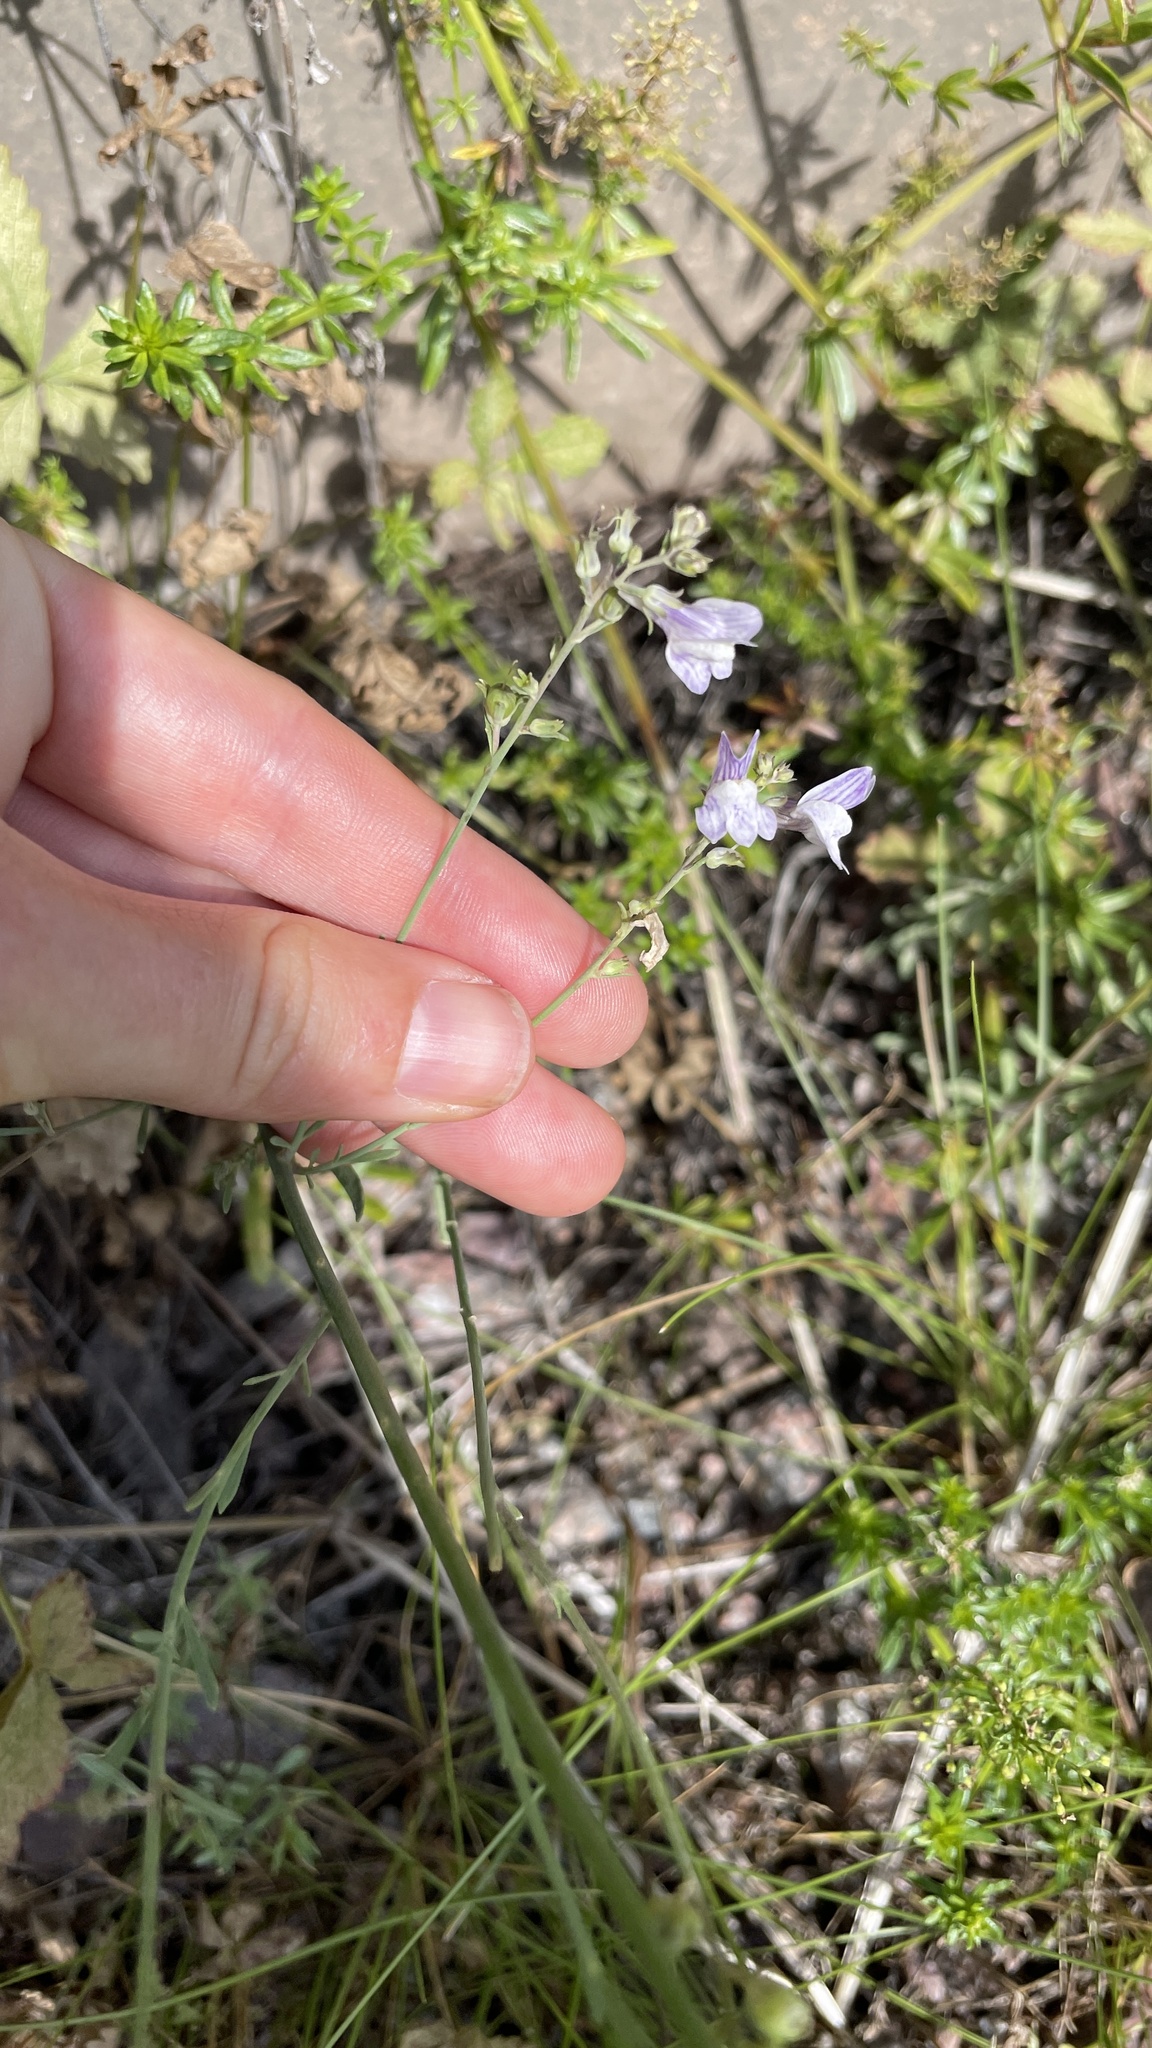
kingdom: Plantae
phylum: Tracheophyta
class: Magnoliopsida
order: Lamiales
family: Plantaginaceae
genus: Linaria
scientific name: Linaria repens
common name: Pale toadflax
